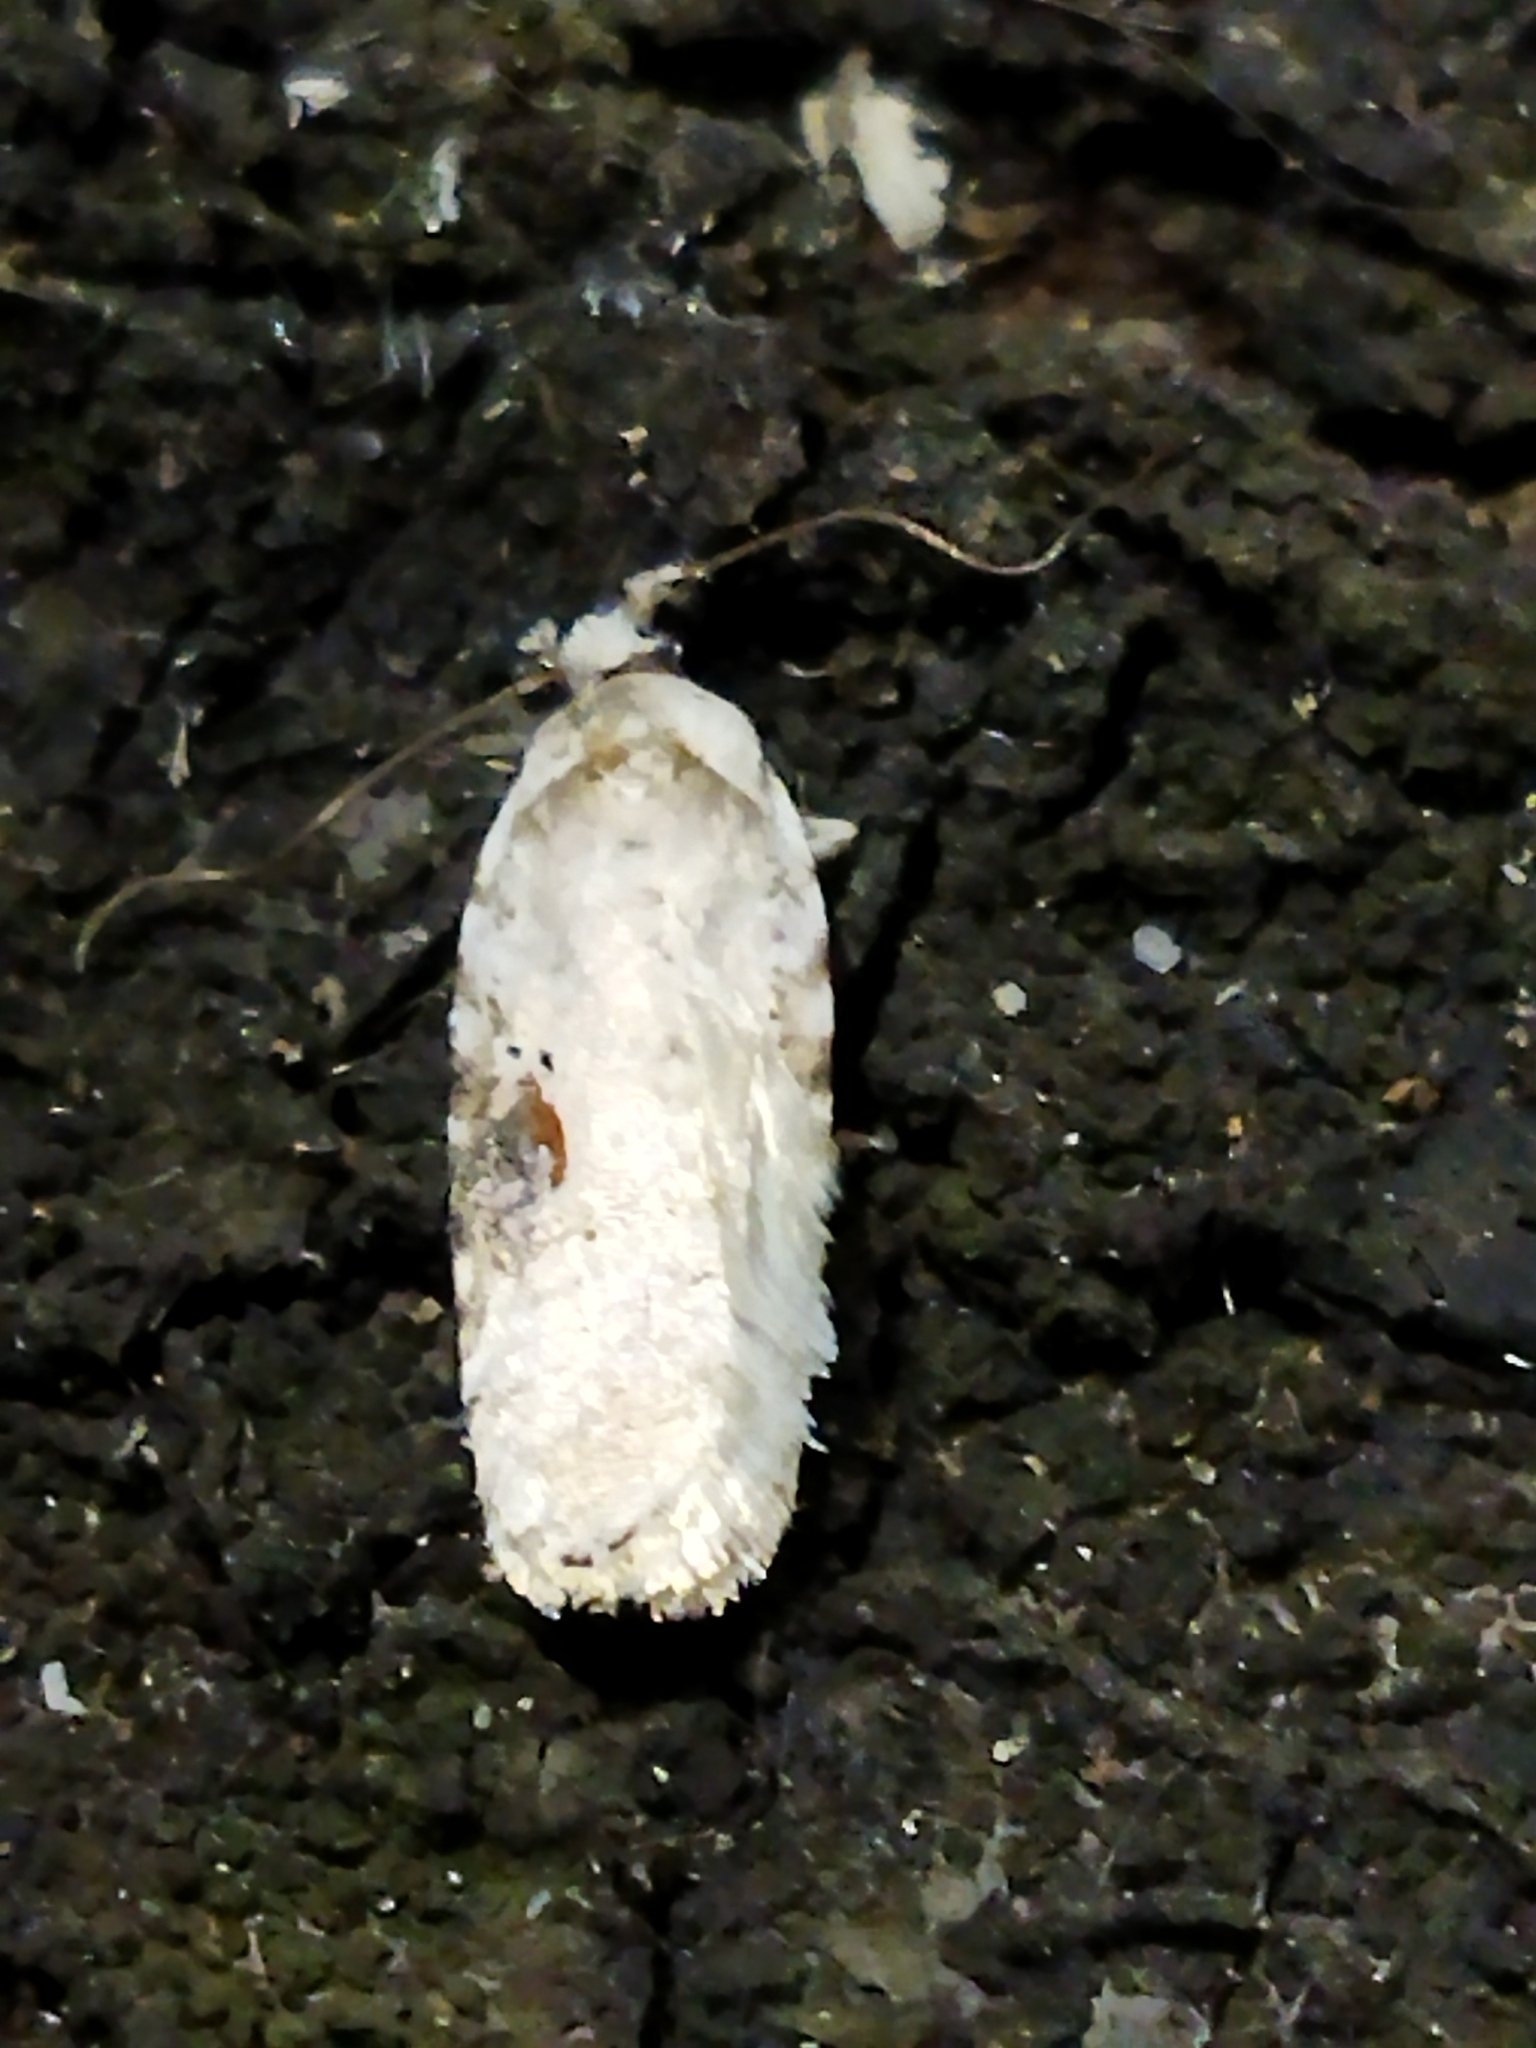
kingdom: Animalia
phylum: Arthropoda
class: Insecta
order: Lepidoptera
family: Depressariidae
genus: Agonopterix
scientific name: Agonopterix alstroemeriana
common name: Moth
